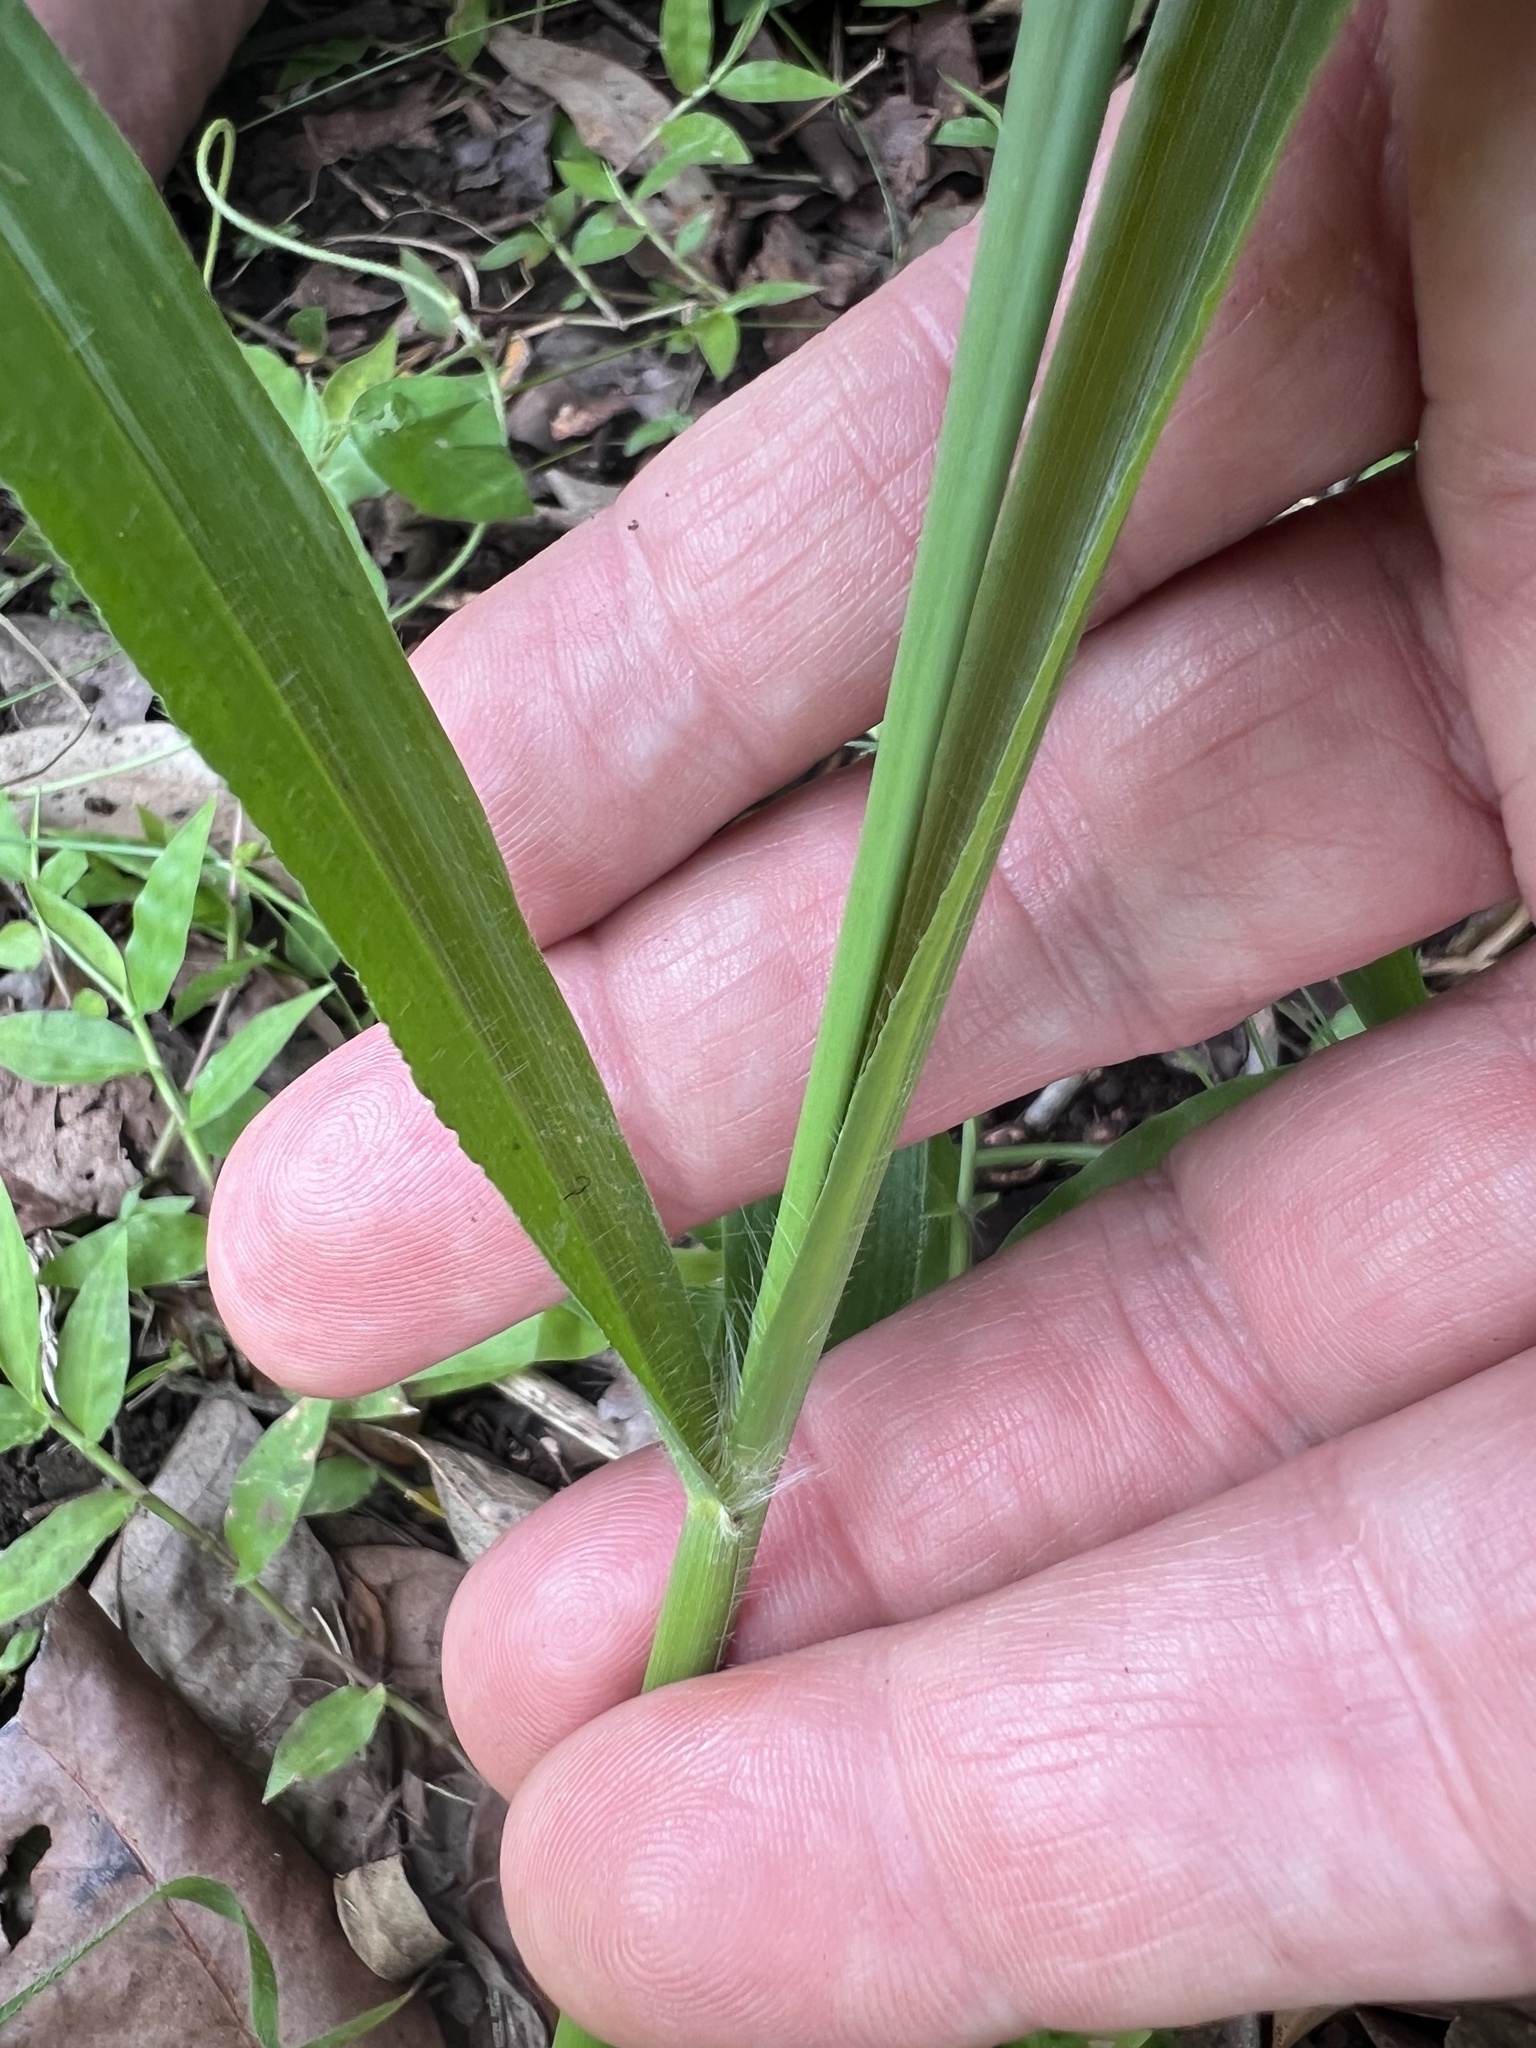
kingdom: Plantae
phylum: Tracheophyta
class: Liliopsida
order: Poales
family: Poaceae
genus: Megathyrsus
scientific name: Megathyrsus maximus
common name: Guineagrass
